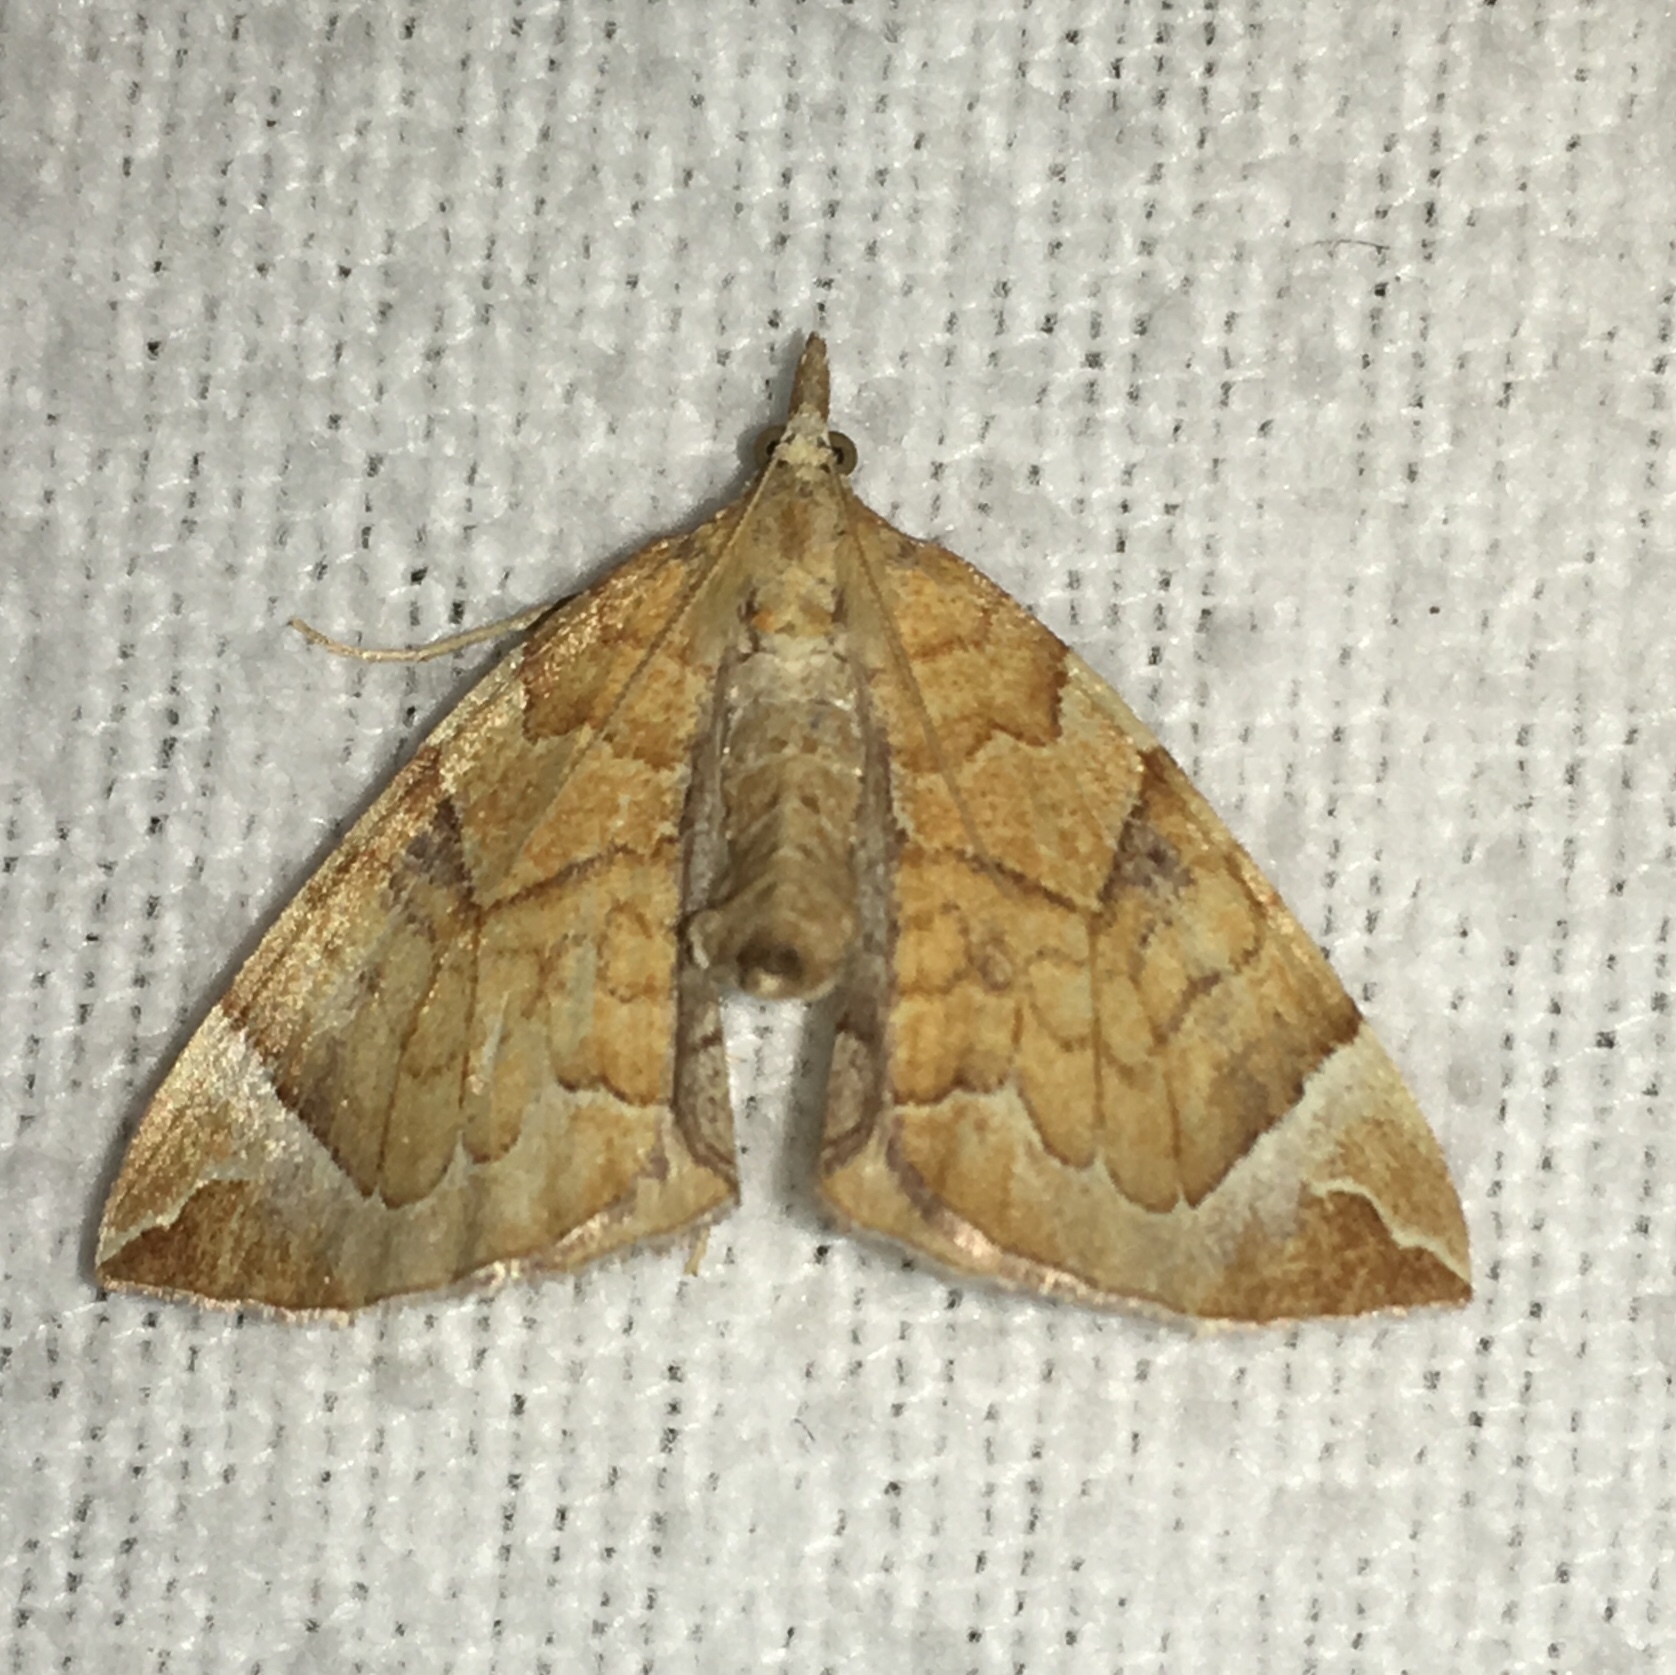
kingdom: Animalia
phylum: Arthropoda
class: Insecta
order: Lepidoptera
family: Geometridae
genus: Eulithis
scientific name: Eulithis testata
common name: Chevron
